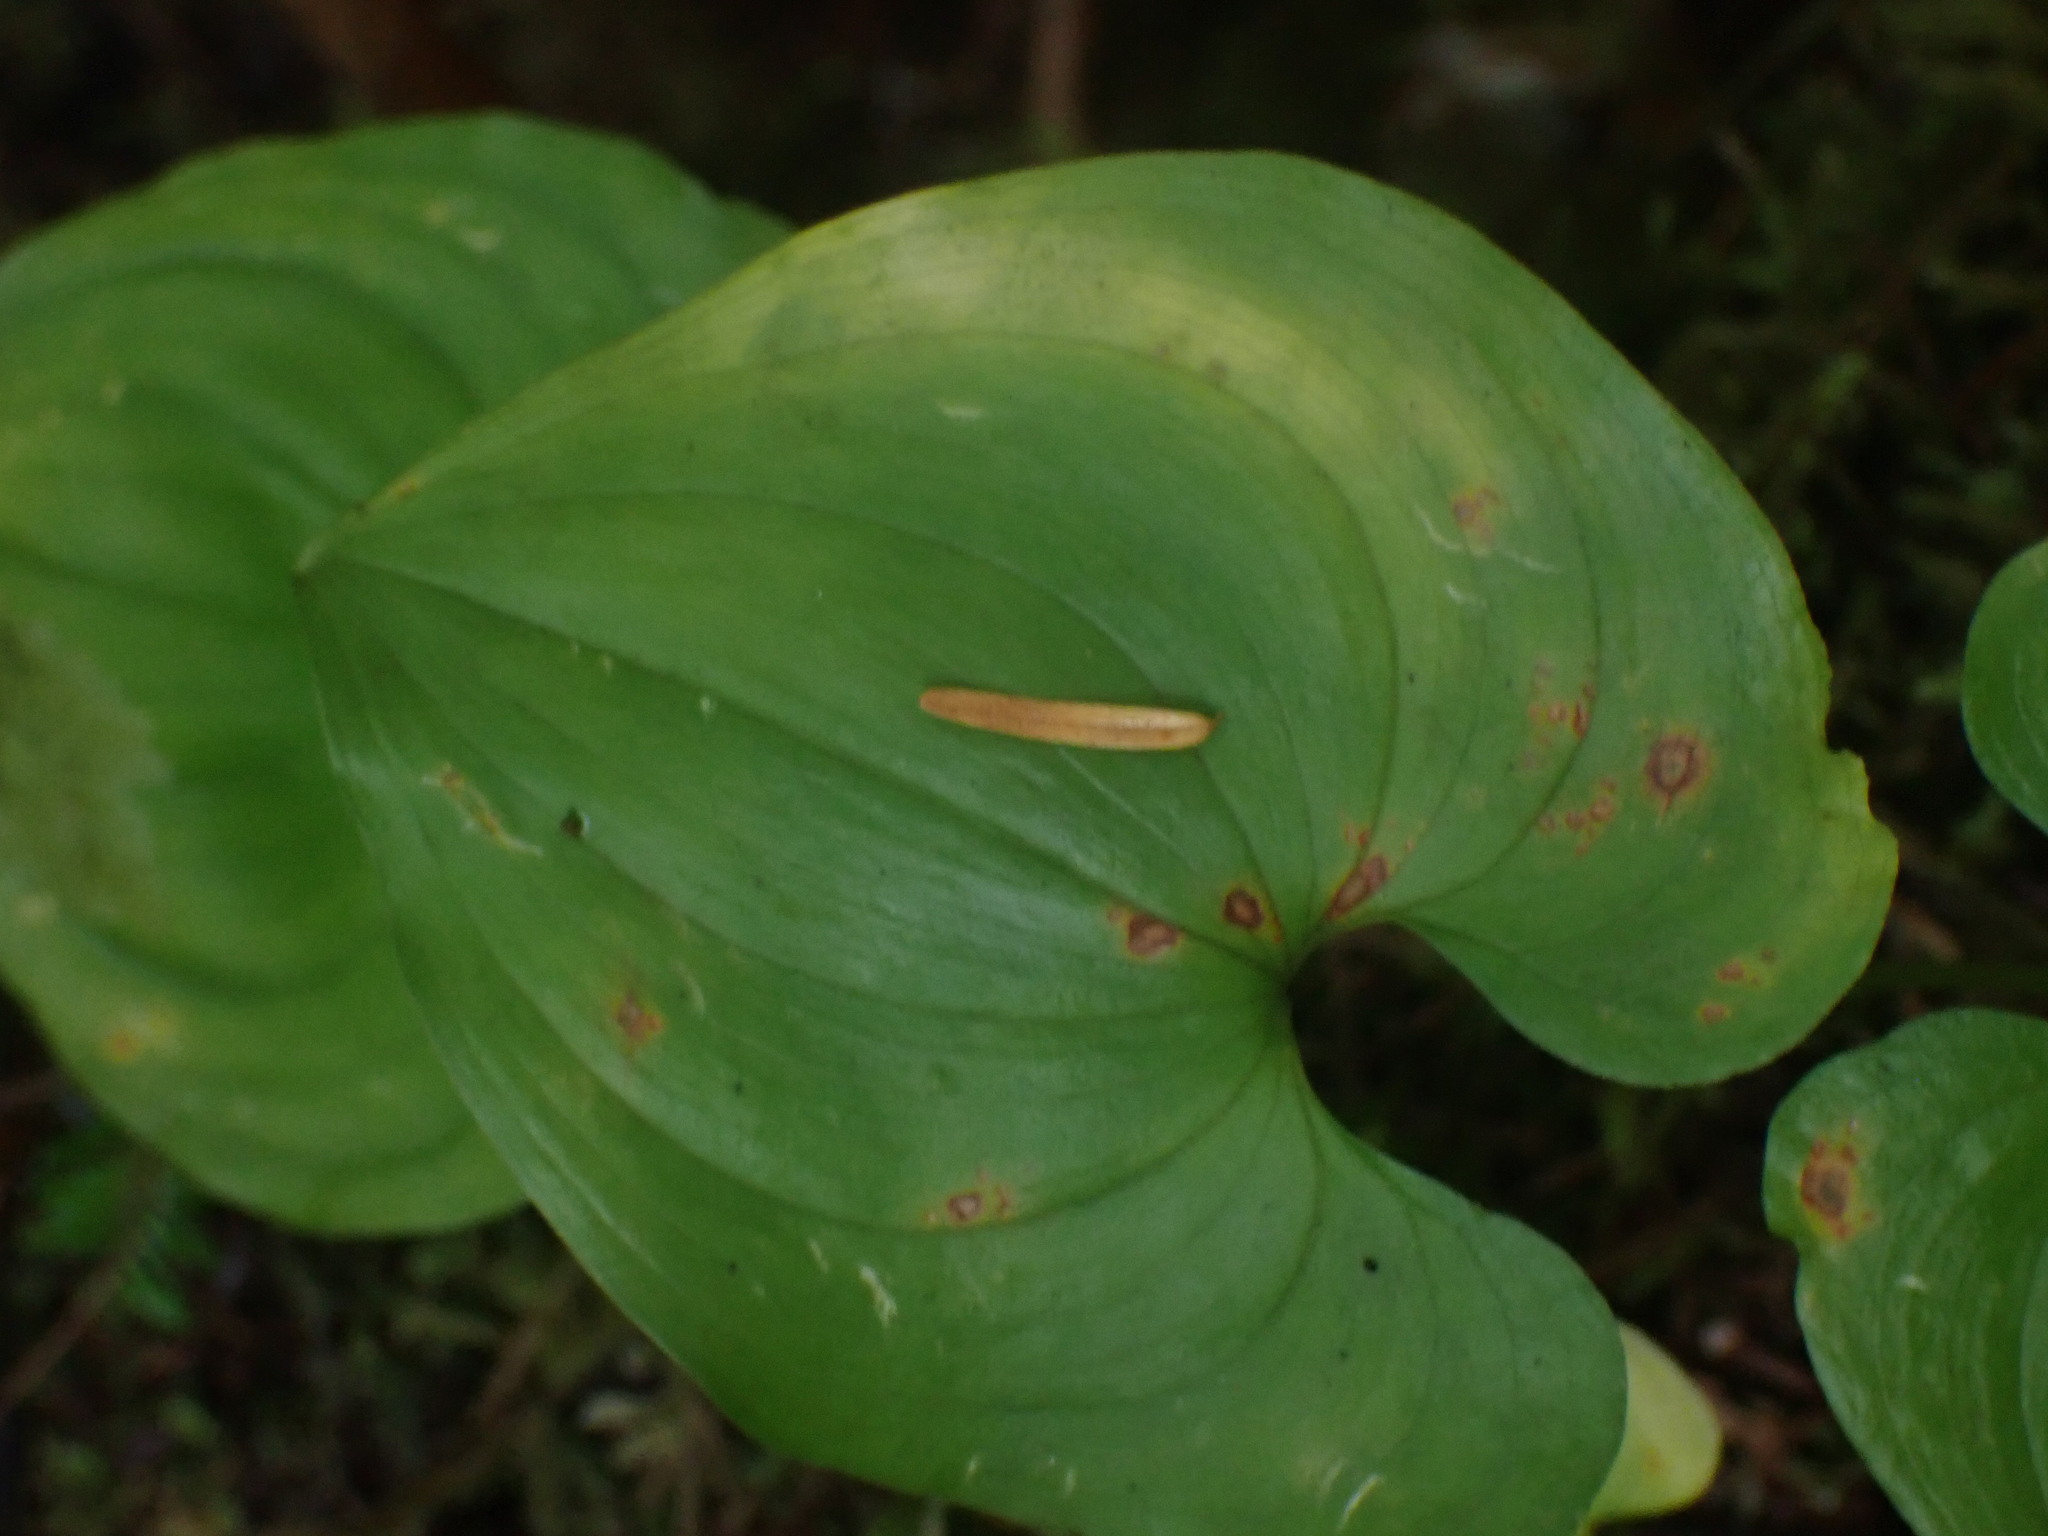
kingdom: Plantae
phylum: Tracheophyta
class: Liliopsida
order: Asparagales
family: Asparagaceae
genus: Maianthemum
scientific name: Maianthemum dilatatum
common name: False lily-of-the-valley
